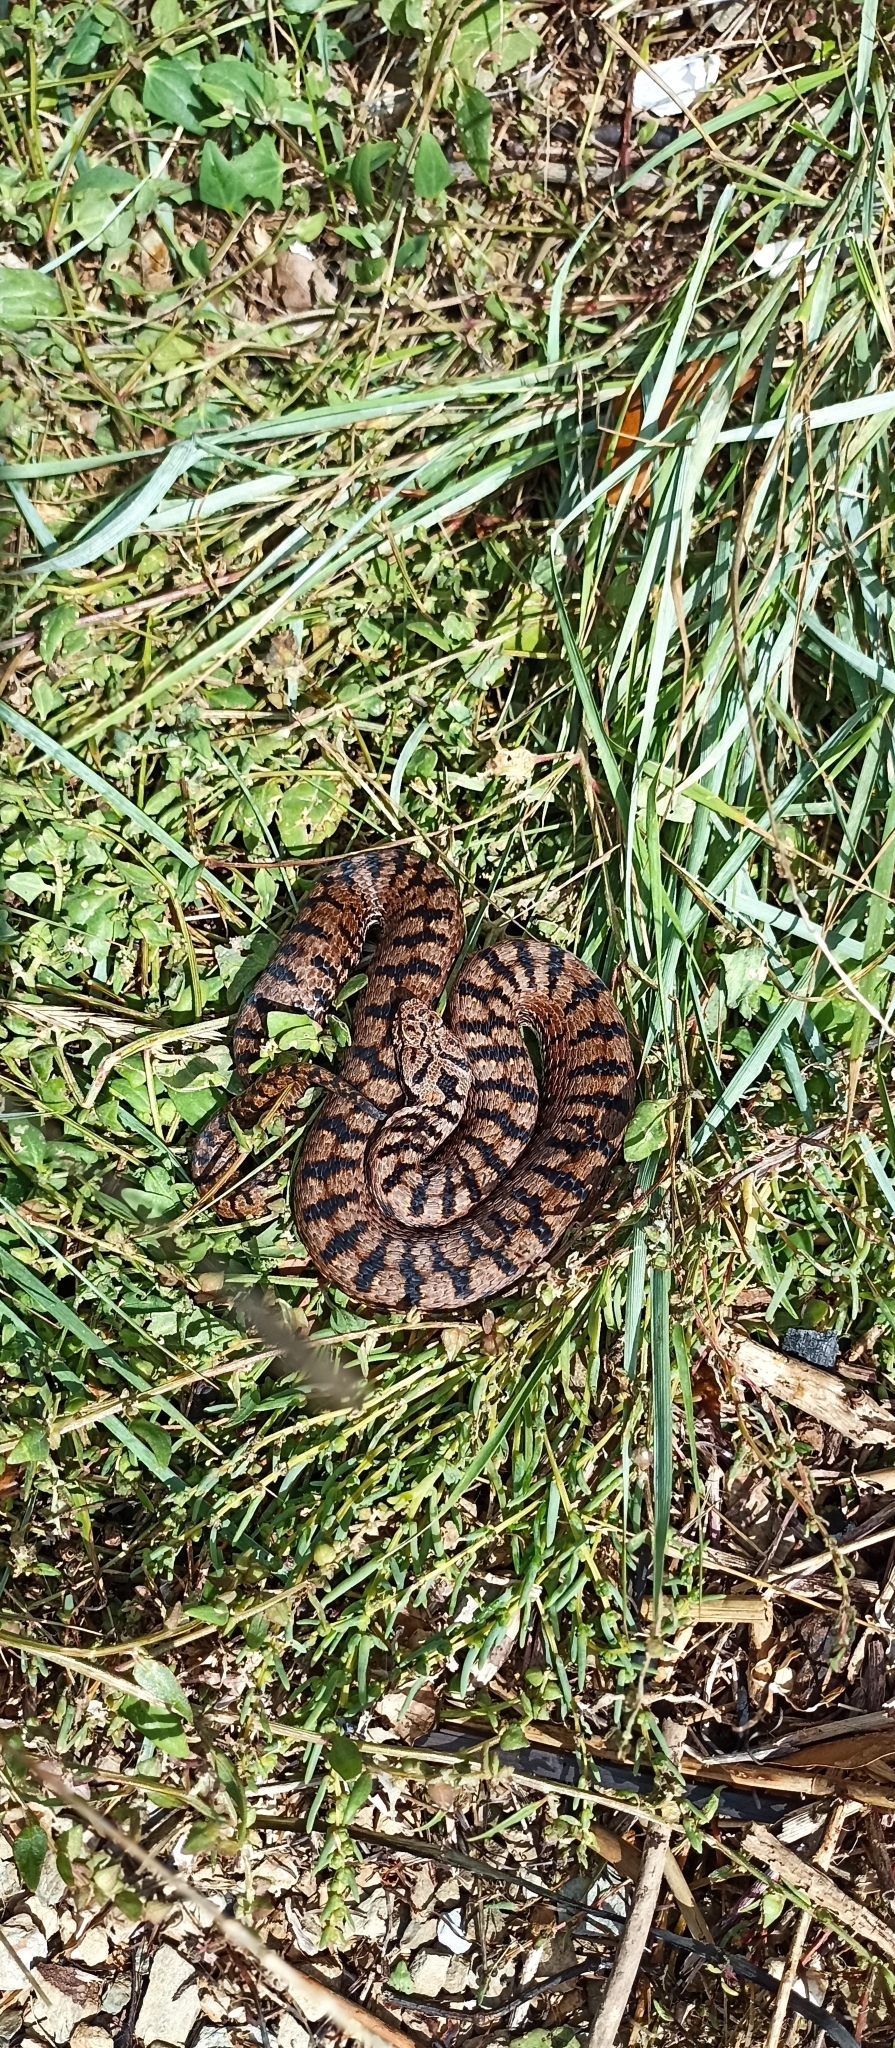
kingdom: Animalia
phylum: Chordata
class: Squamata
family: Viperidae
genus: Vipera
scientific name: Vipera aspis
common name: Asp viper
